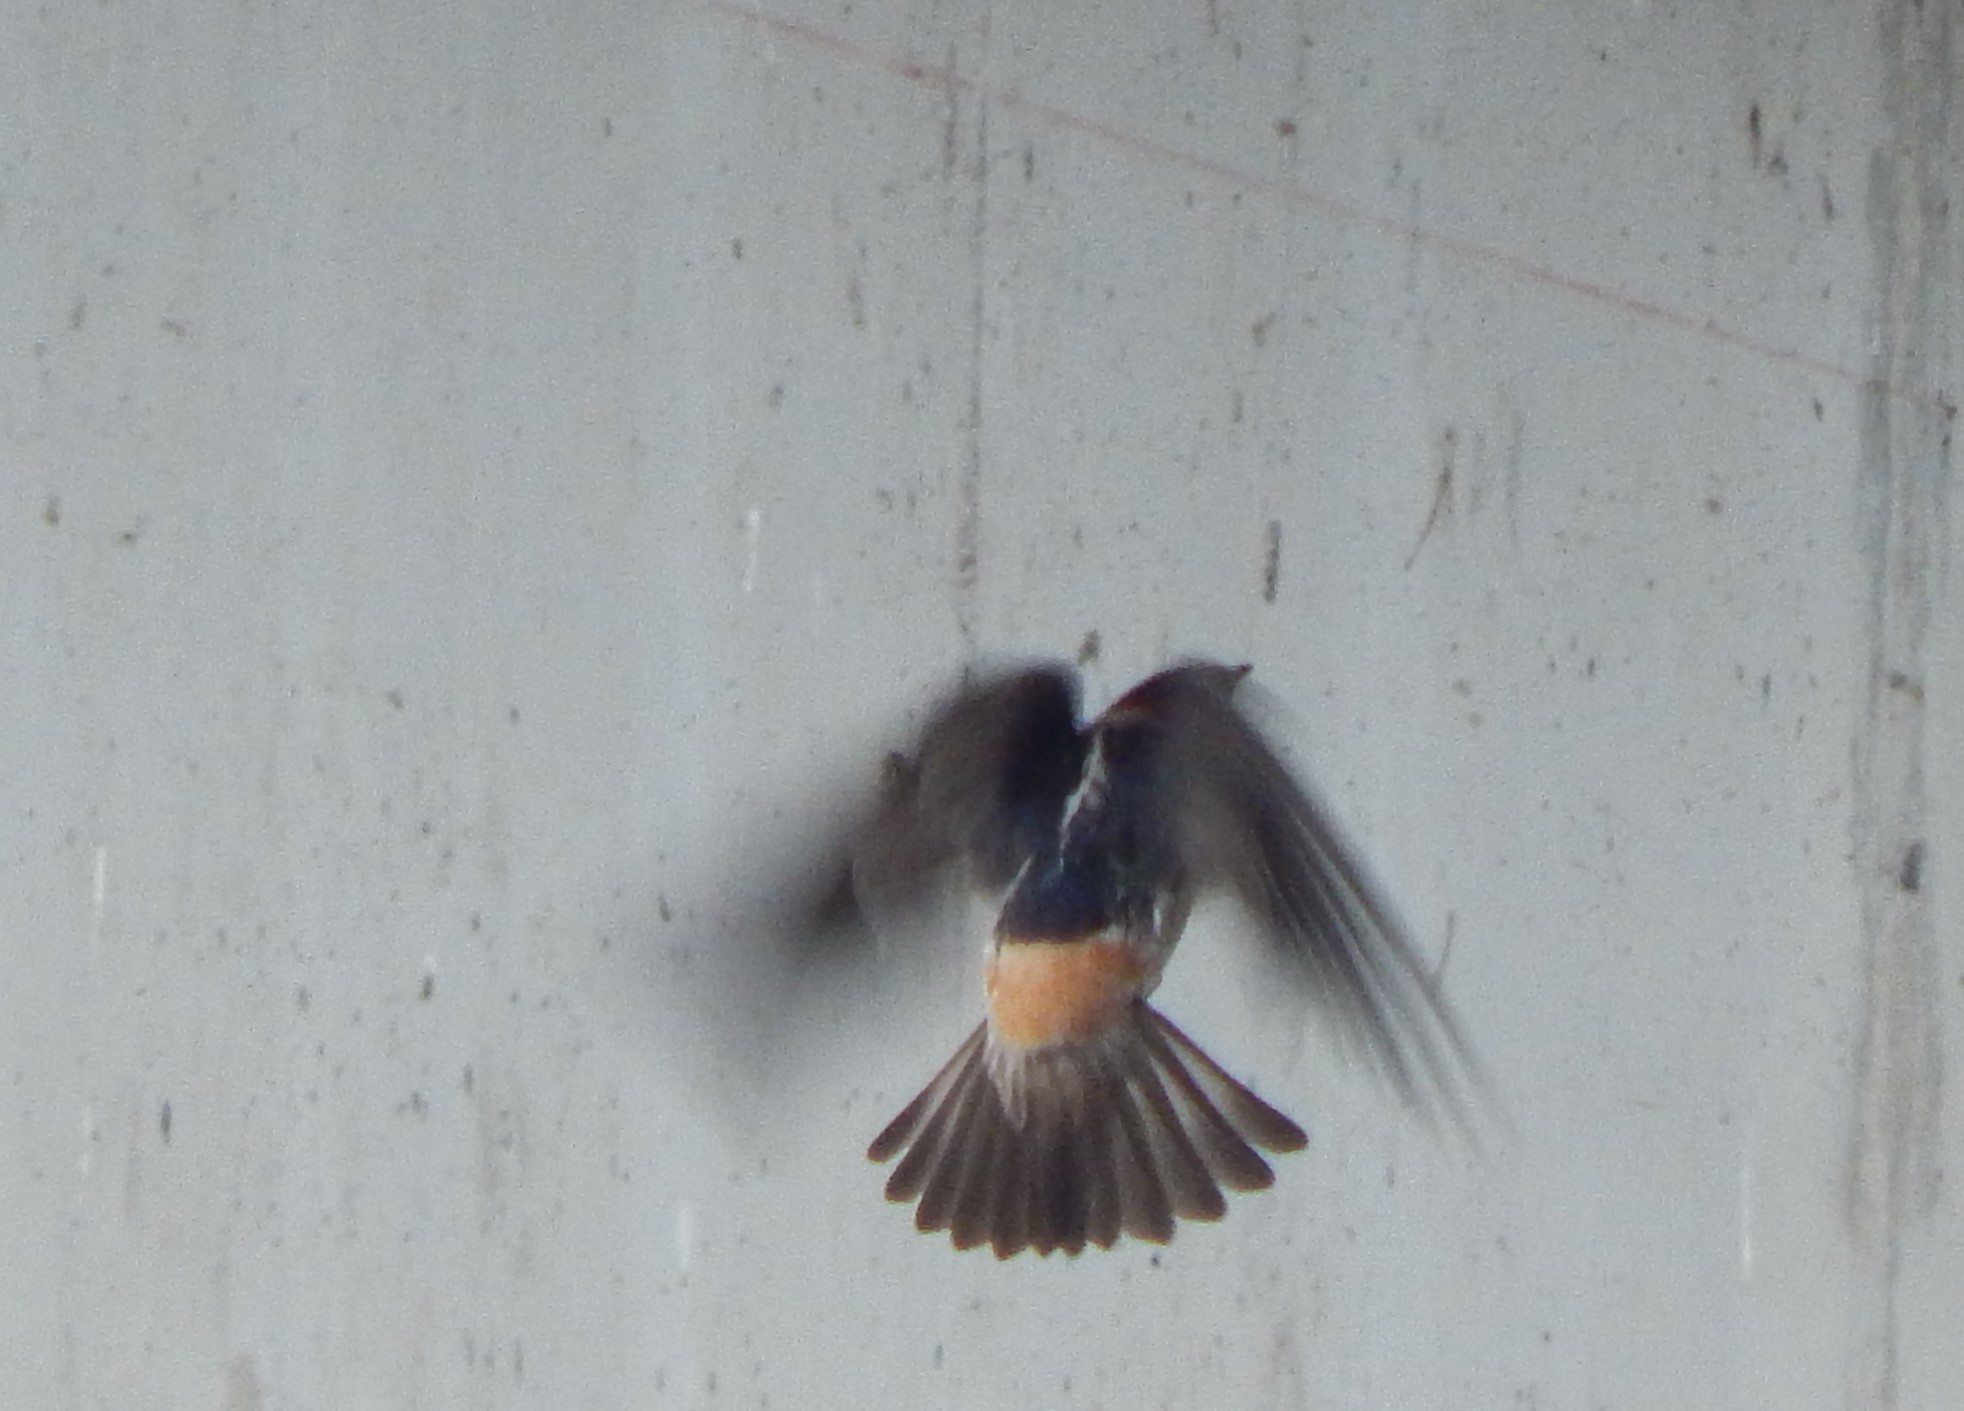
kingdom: Animalia
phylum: Chordata
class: Aves
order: Passeriformes
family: Hirundinidae
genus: Petrochelidon
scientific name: Petrochelidon pyrrhonota
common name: American cliff swallow
